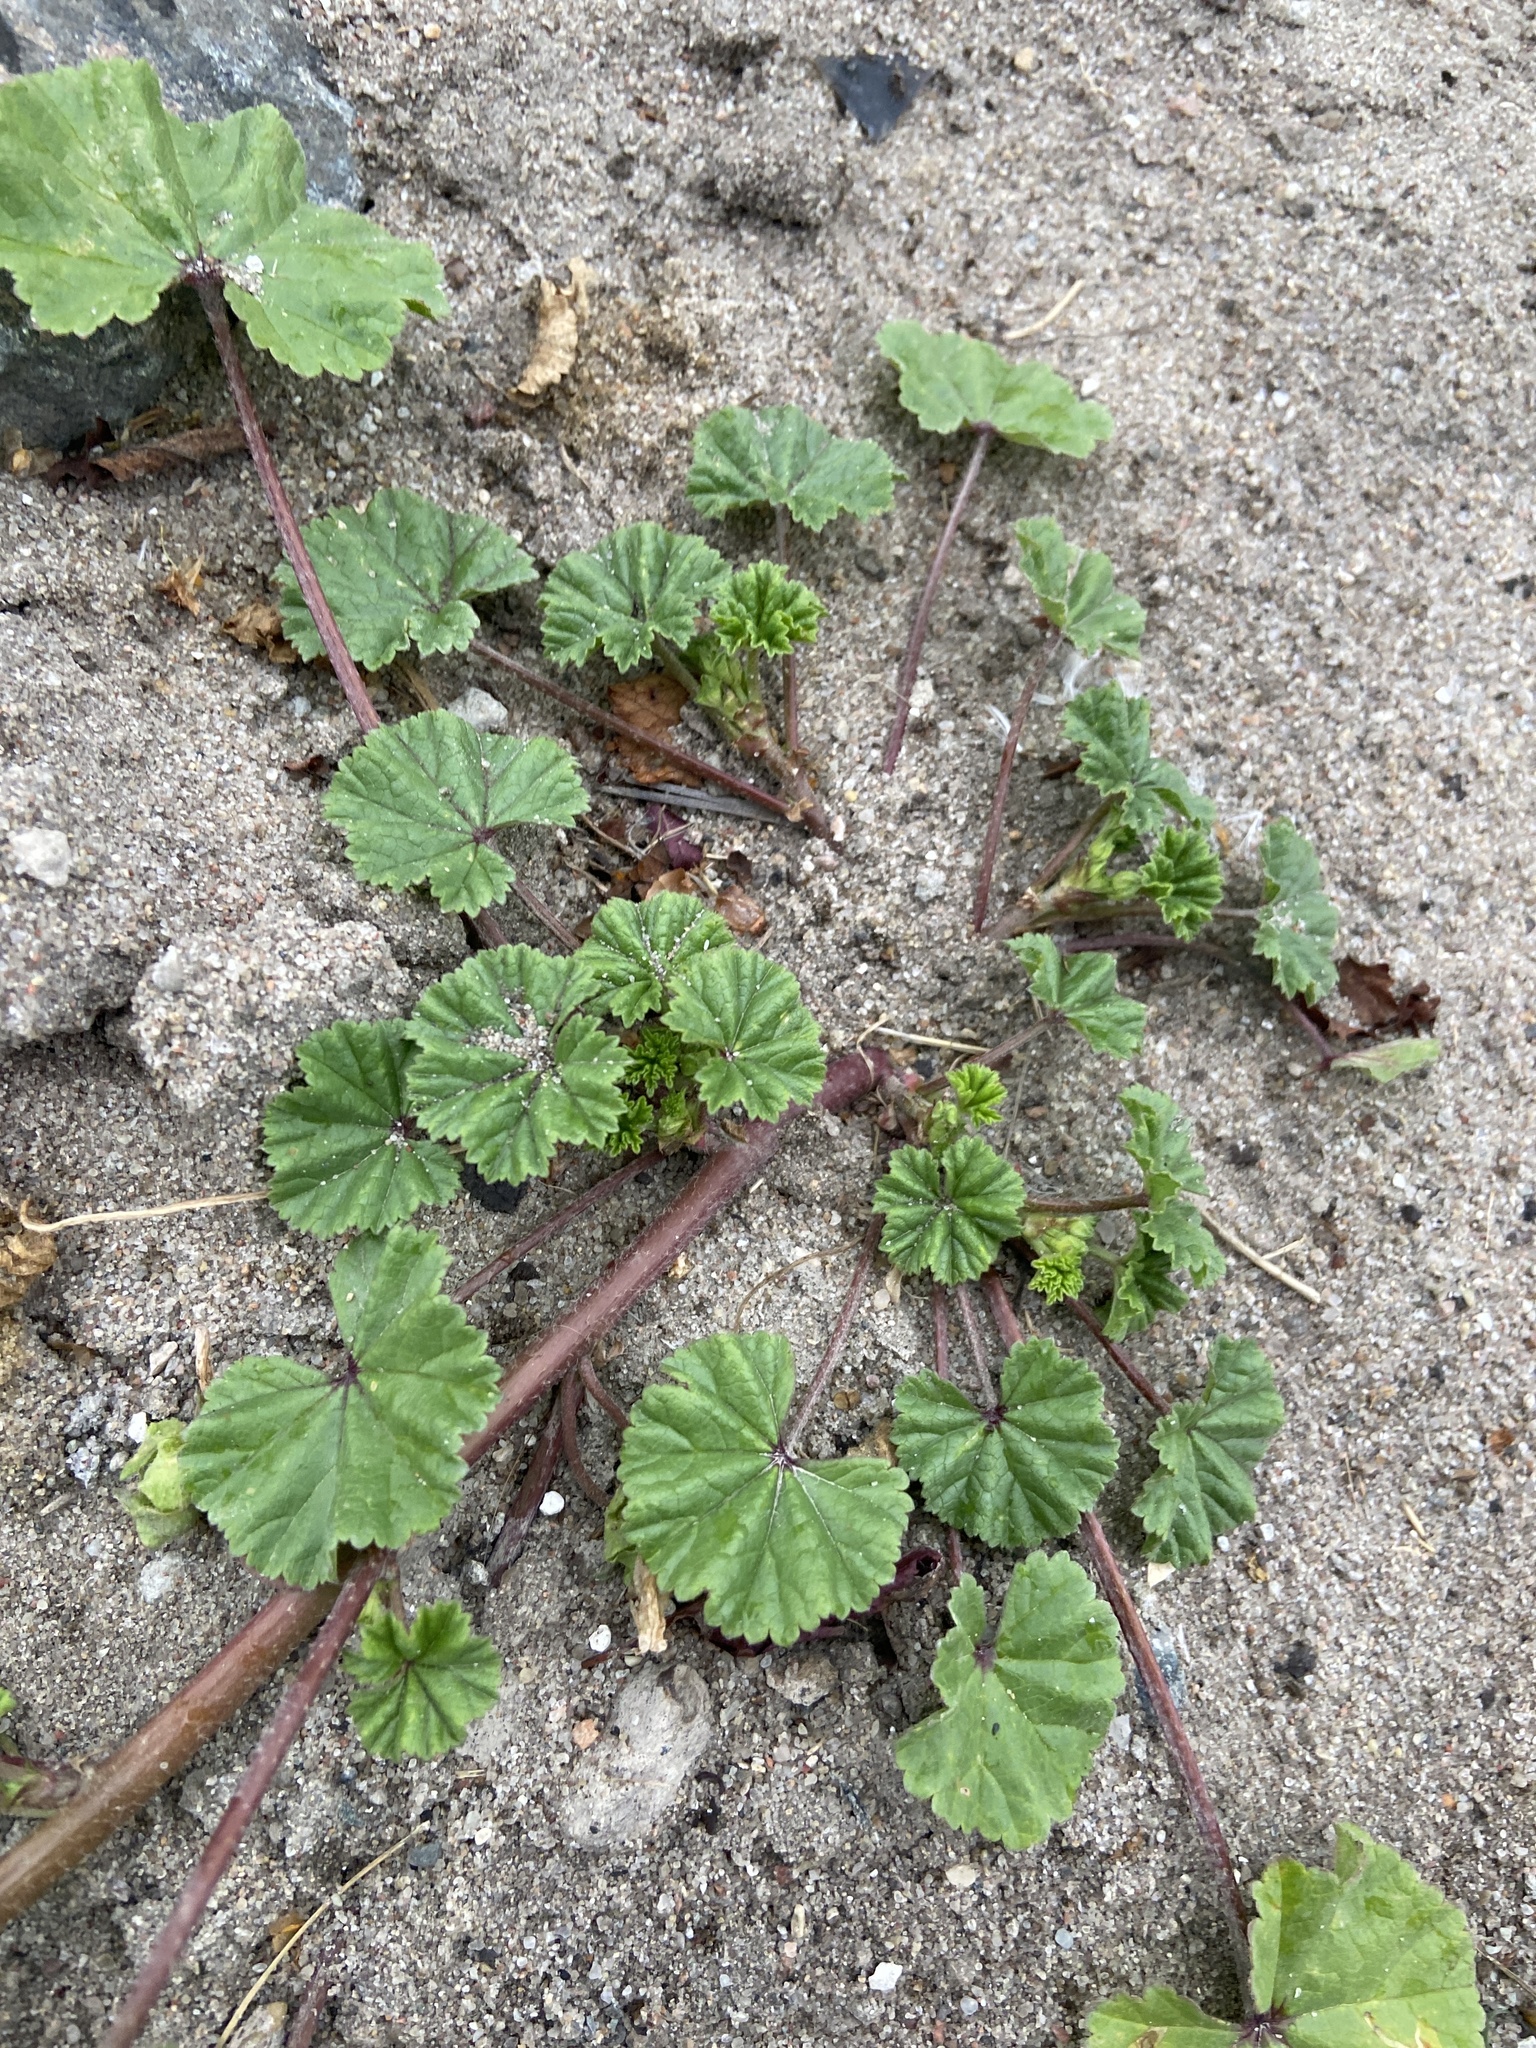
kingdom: Plantae
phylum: Tracheophyta
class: Magnoliopsida
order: Malvales
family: Malvaceae
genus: Malva
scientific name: Malva neglecta
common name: Common mallow
